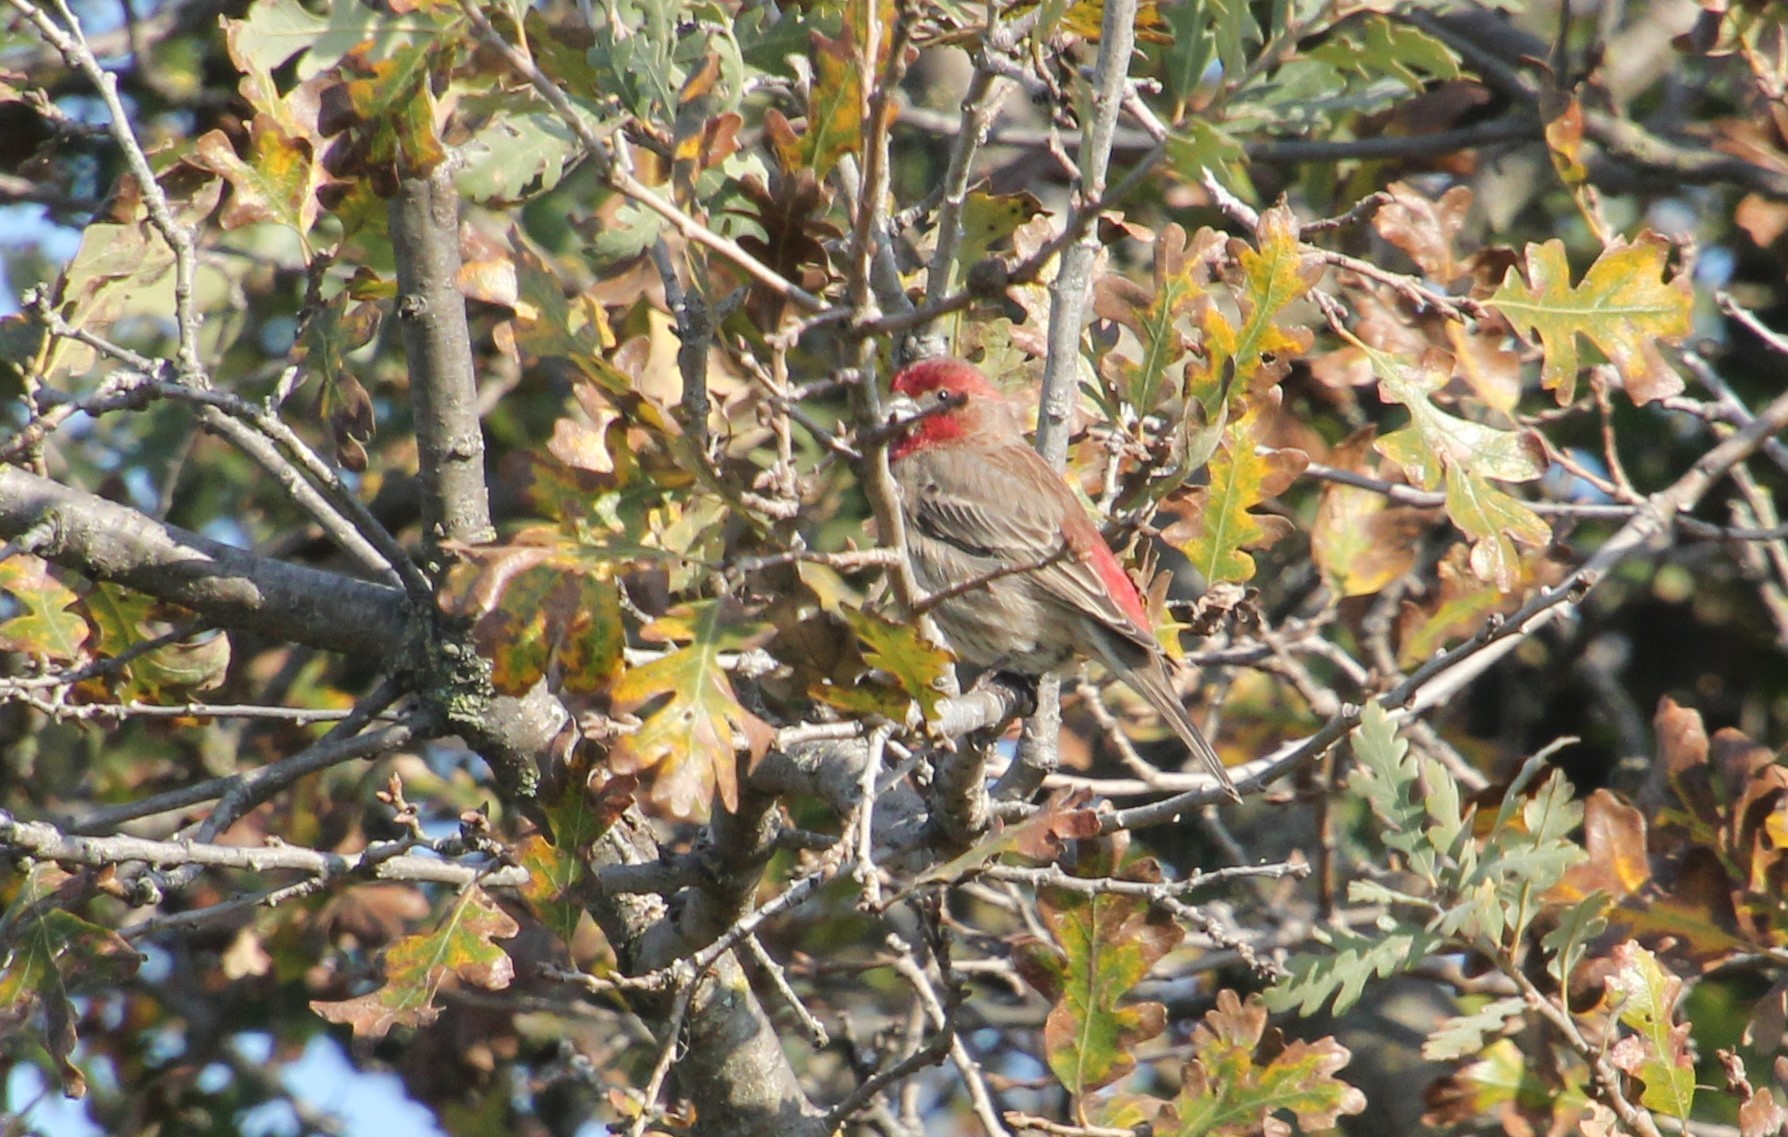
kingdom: Animalia
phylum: Chordata
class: Aves
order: Passeriformes
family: Fringillidae
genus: Haemorhous
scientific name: Haemorhous mexicanus
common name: House finch
